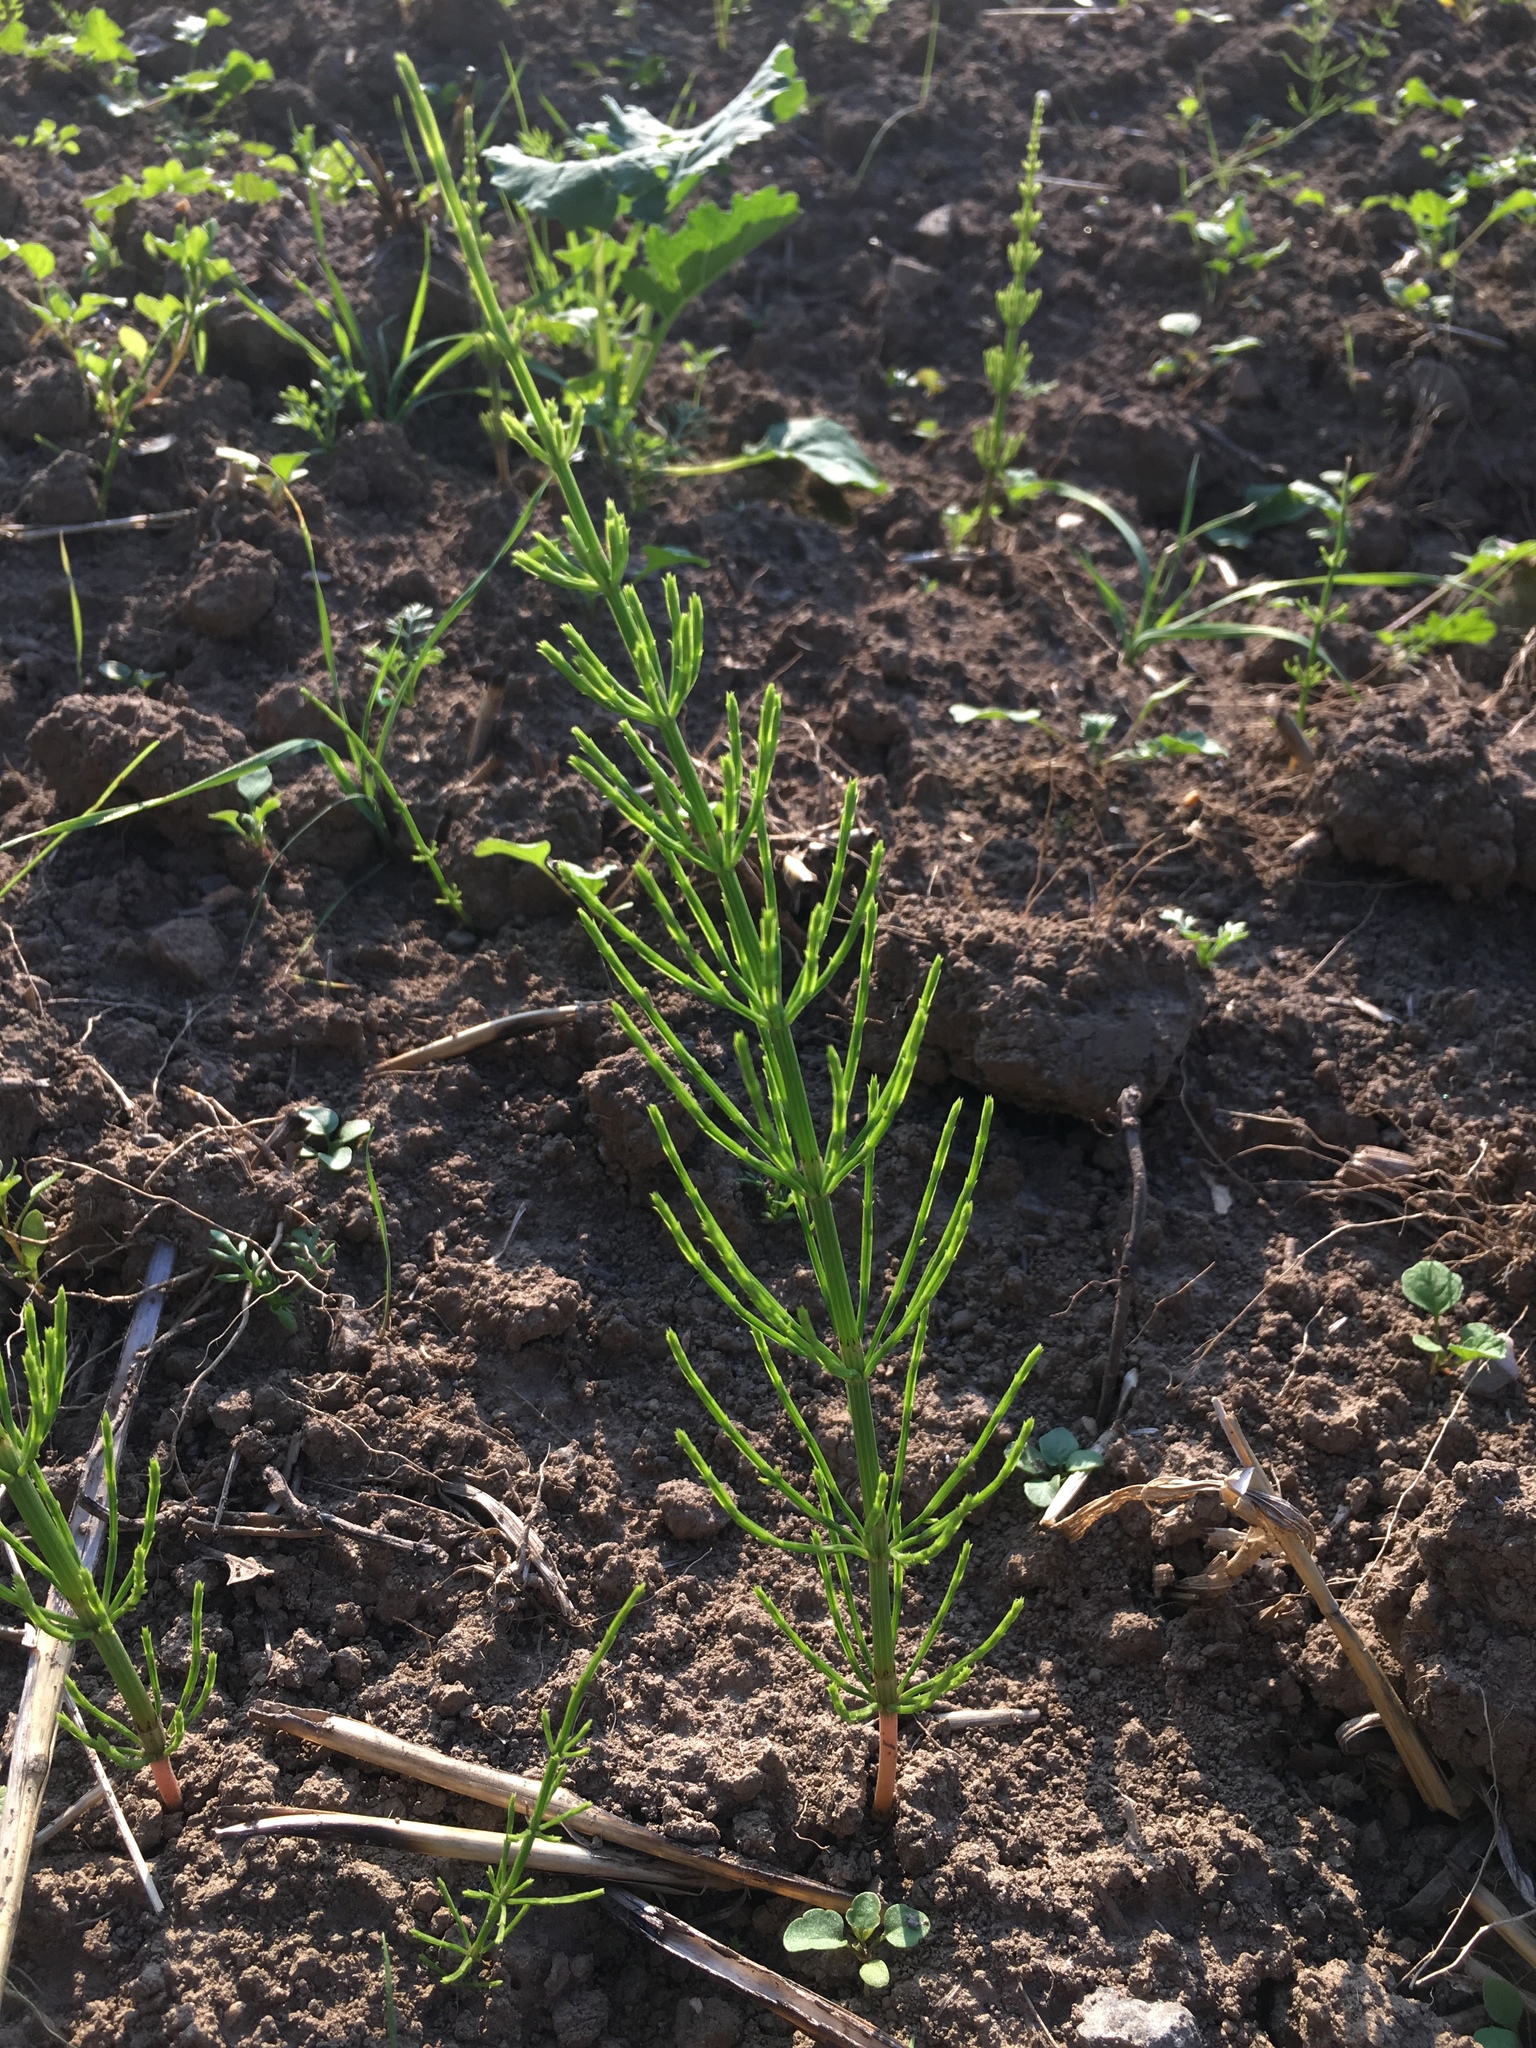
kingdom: Plantae
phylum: Tracheophyta
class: Polypodiopsida
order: Equisetales
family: Equisetaceae
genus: Equisetum
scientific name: Equisetum arvense
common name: Field horsetail
